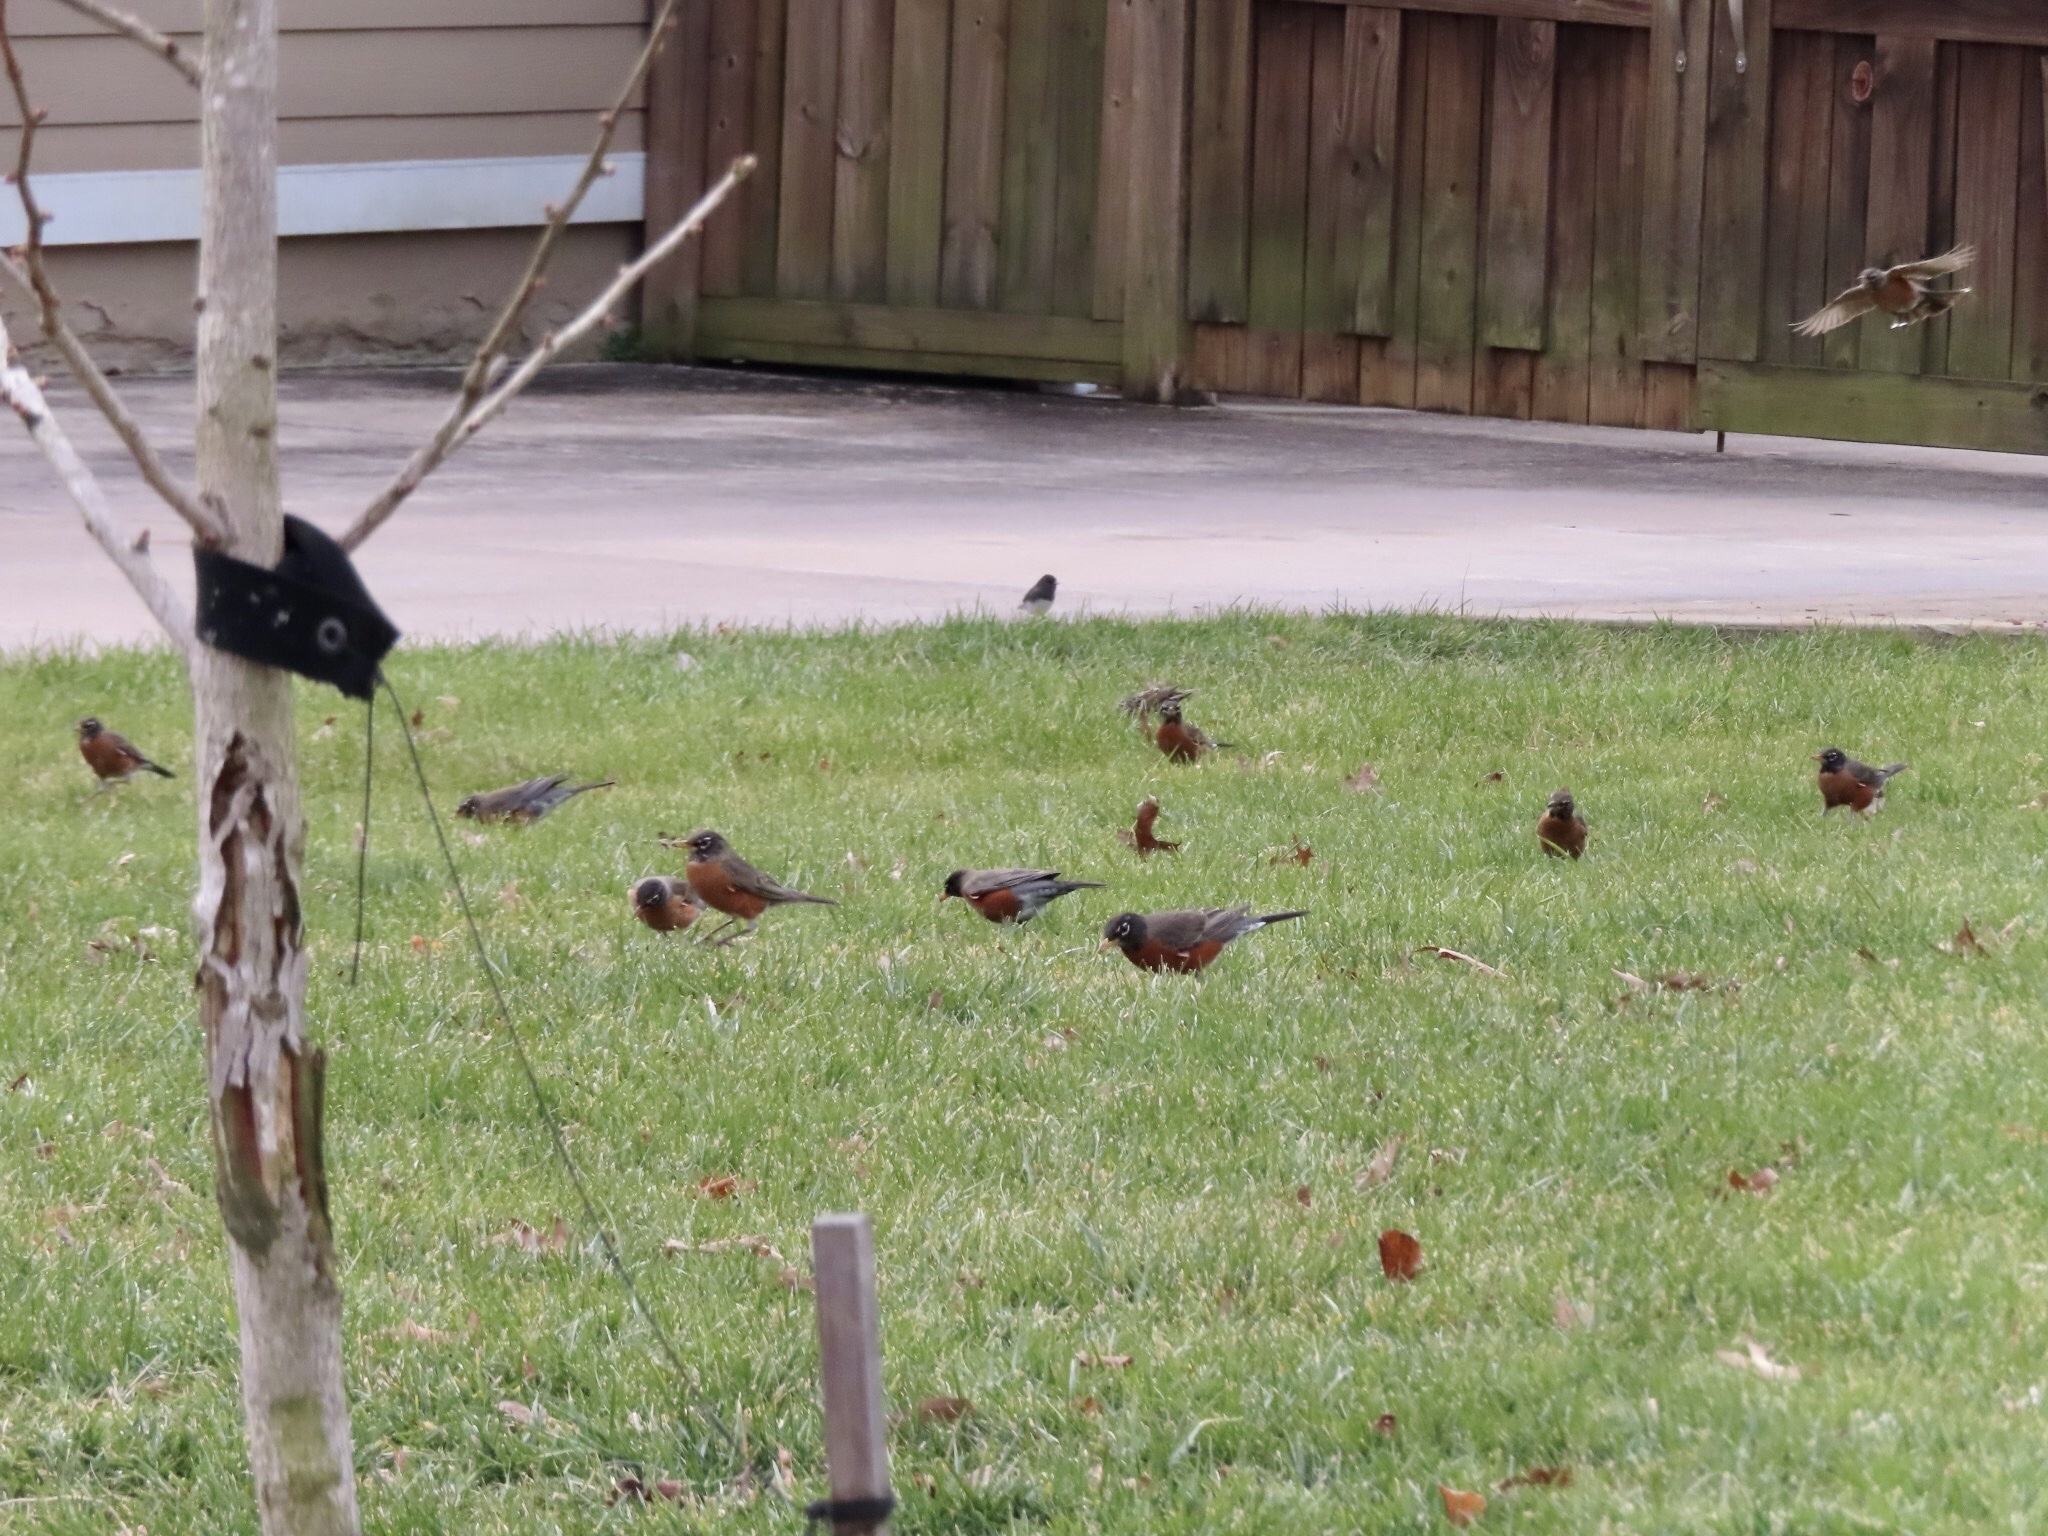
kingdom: Animalia
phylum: Chordata
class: Aves
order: Passeriformes
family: Turdidae
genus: Turdus
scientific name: Turdus migratorius
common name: American robin
